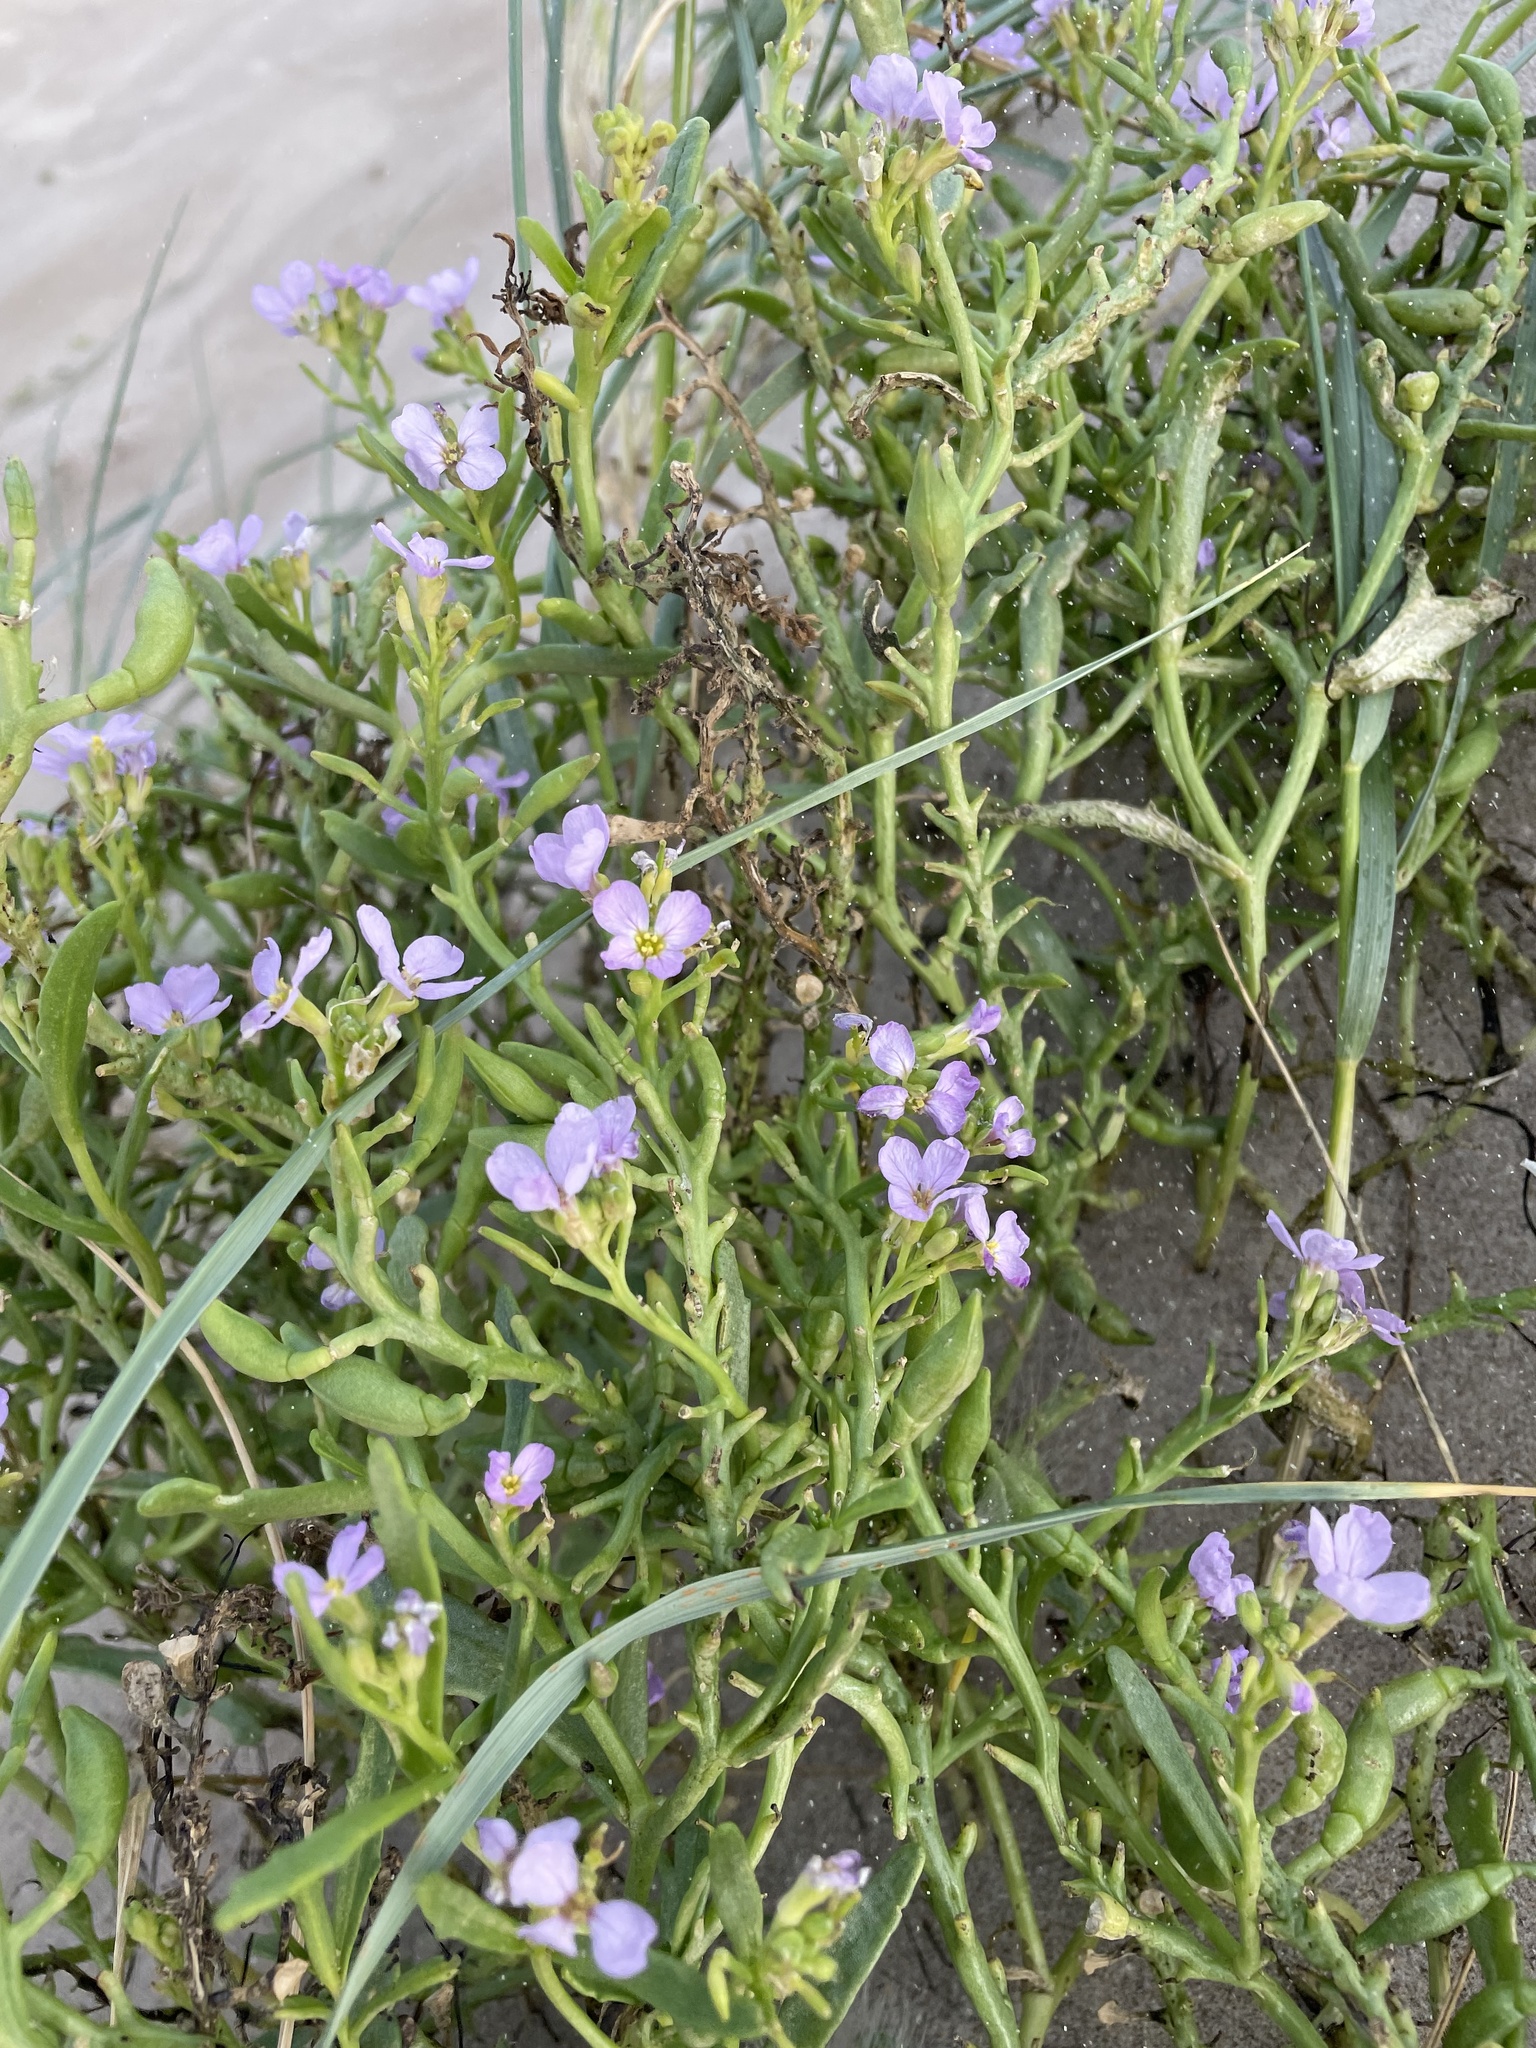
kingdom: Plantae
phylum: Tracheophyta
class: Magnoliopsida
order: Brassicales
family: Brassicaceae
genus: Cakile
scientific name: Cakile maritima
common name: Sea rocket
